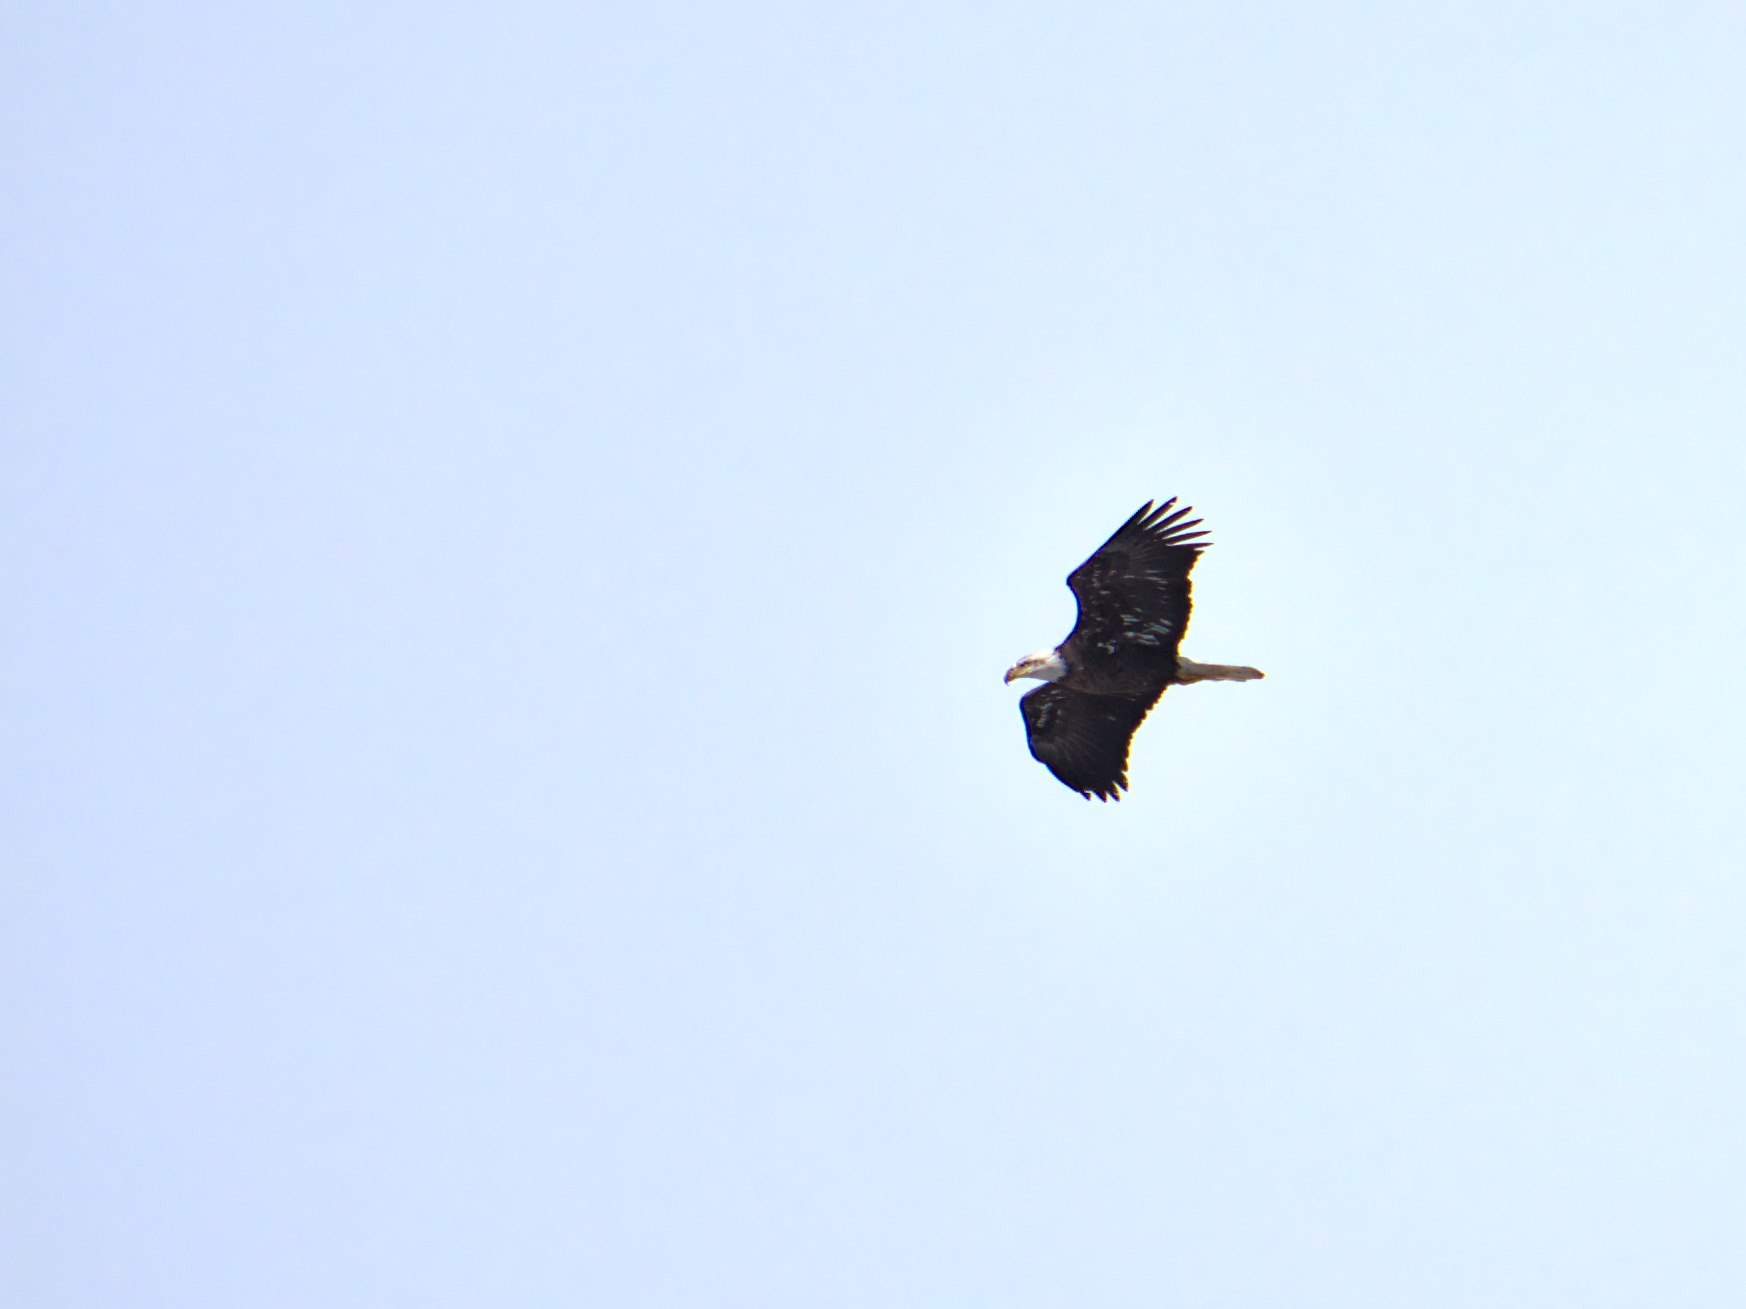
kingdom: Animalia
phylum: Chordata
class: Aves
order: Accipitriformes
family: Accipitridae
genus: Haliaeetus
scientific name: Haliaeetus leucocephalus
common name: Bald eagle
